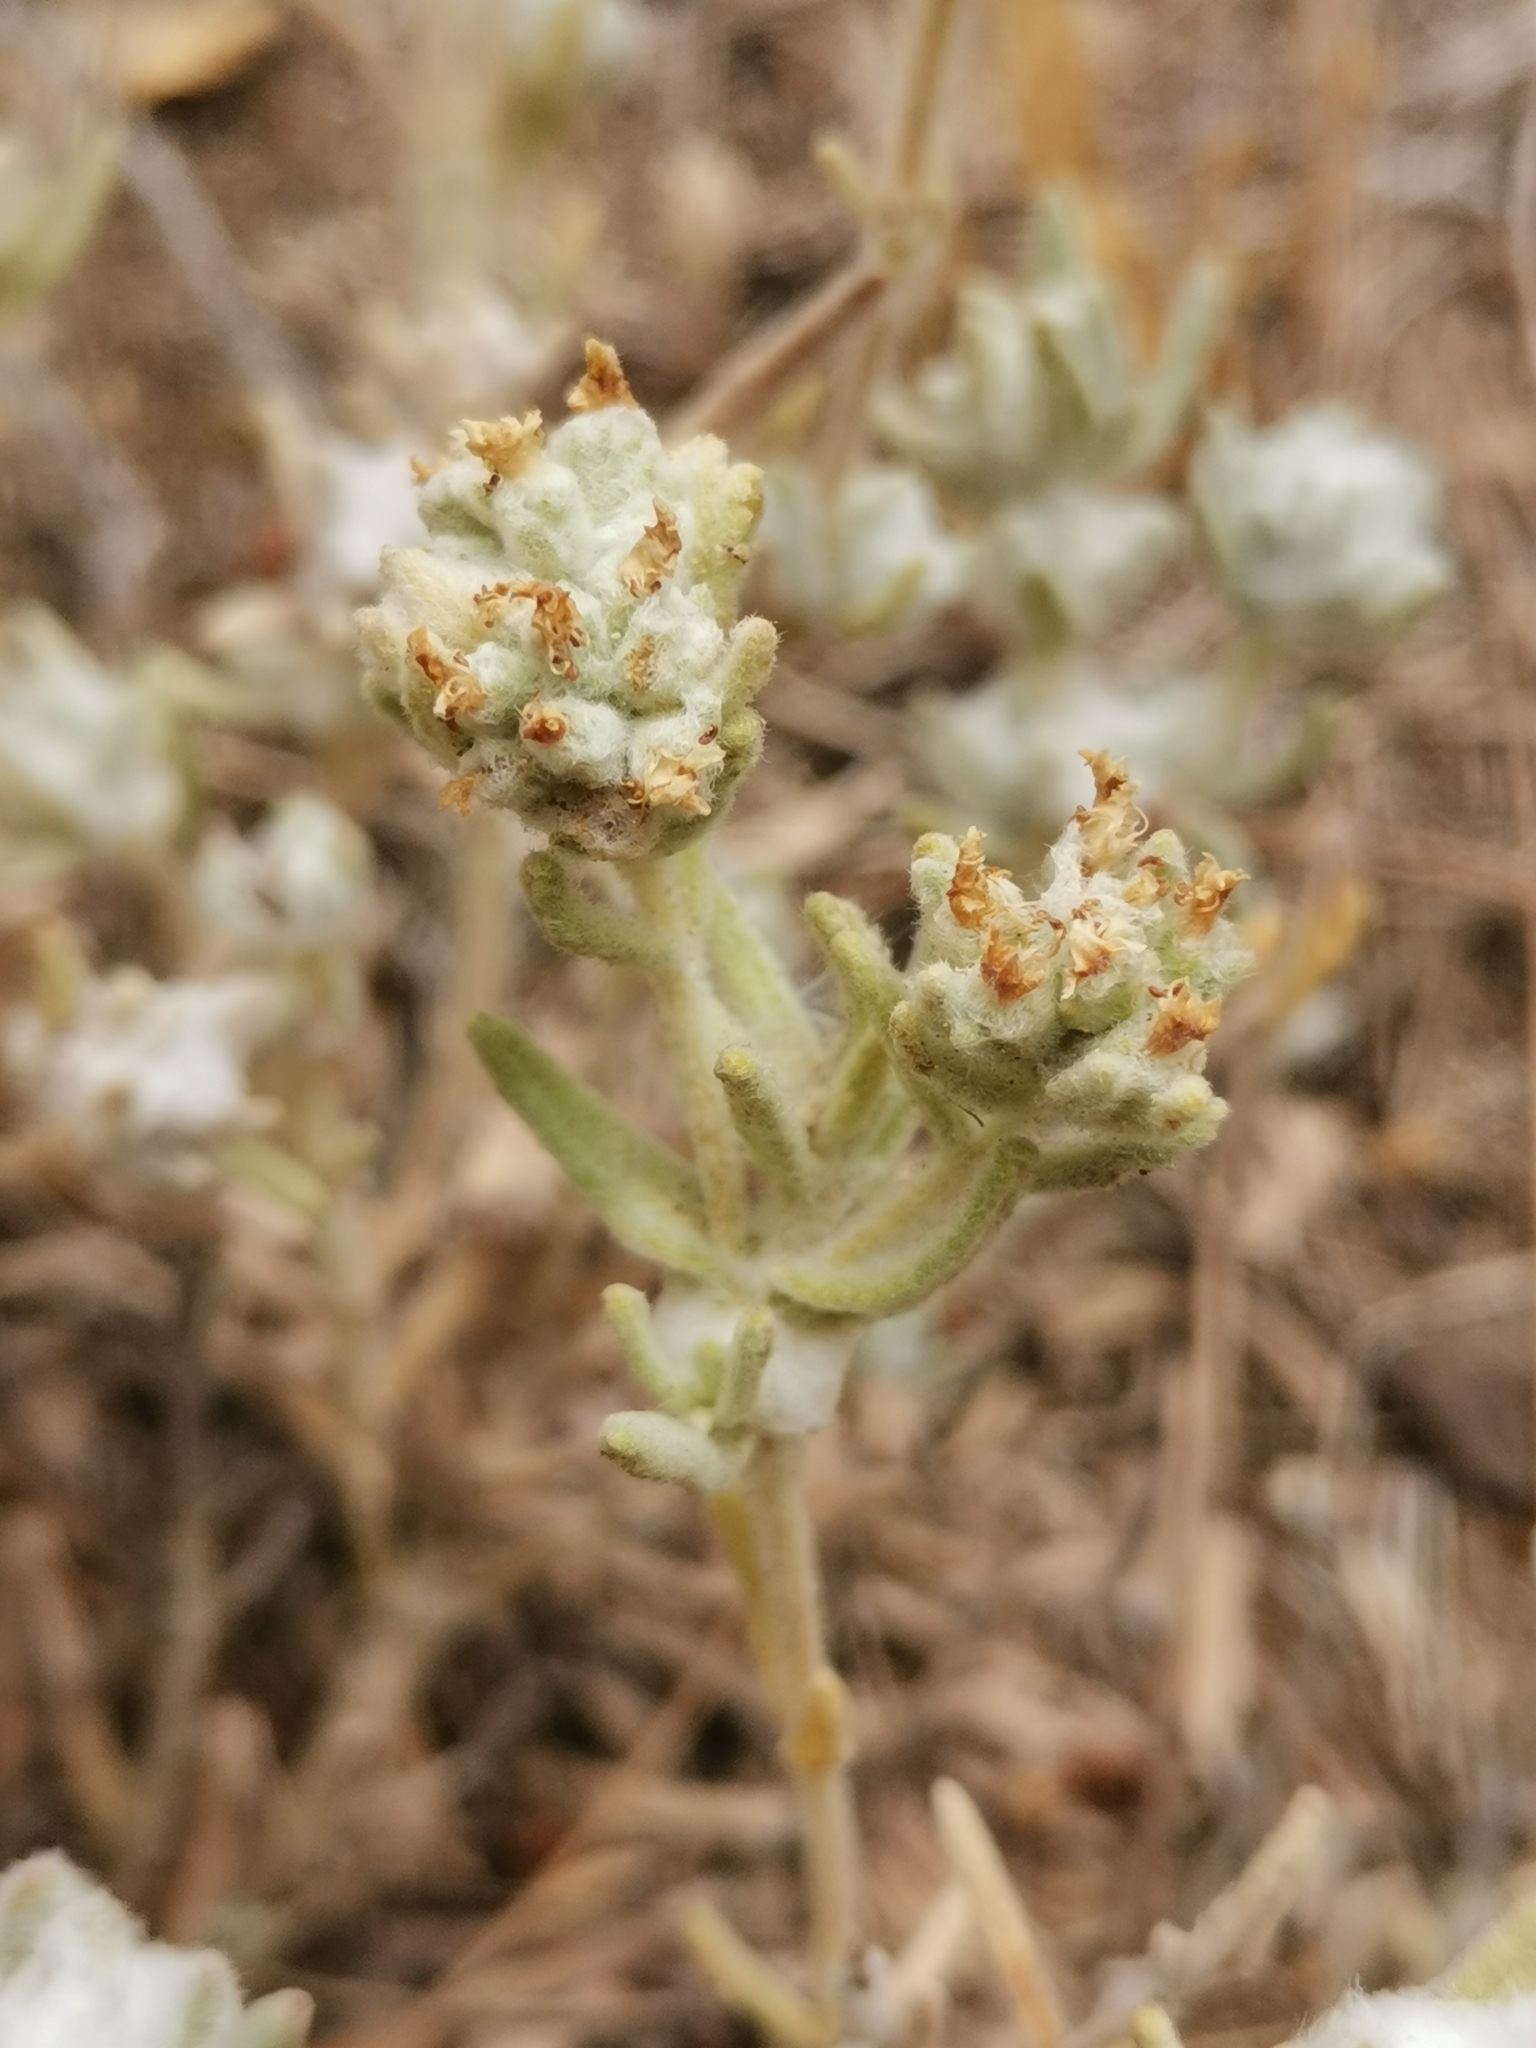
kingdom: Plantae
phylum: Tracheophyta
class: Magnoliopsida
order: Lamiales
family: Lamiaceae
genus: Teucrium
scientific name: Teucrium capitatum
